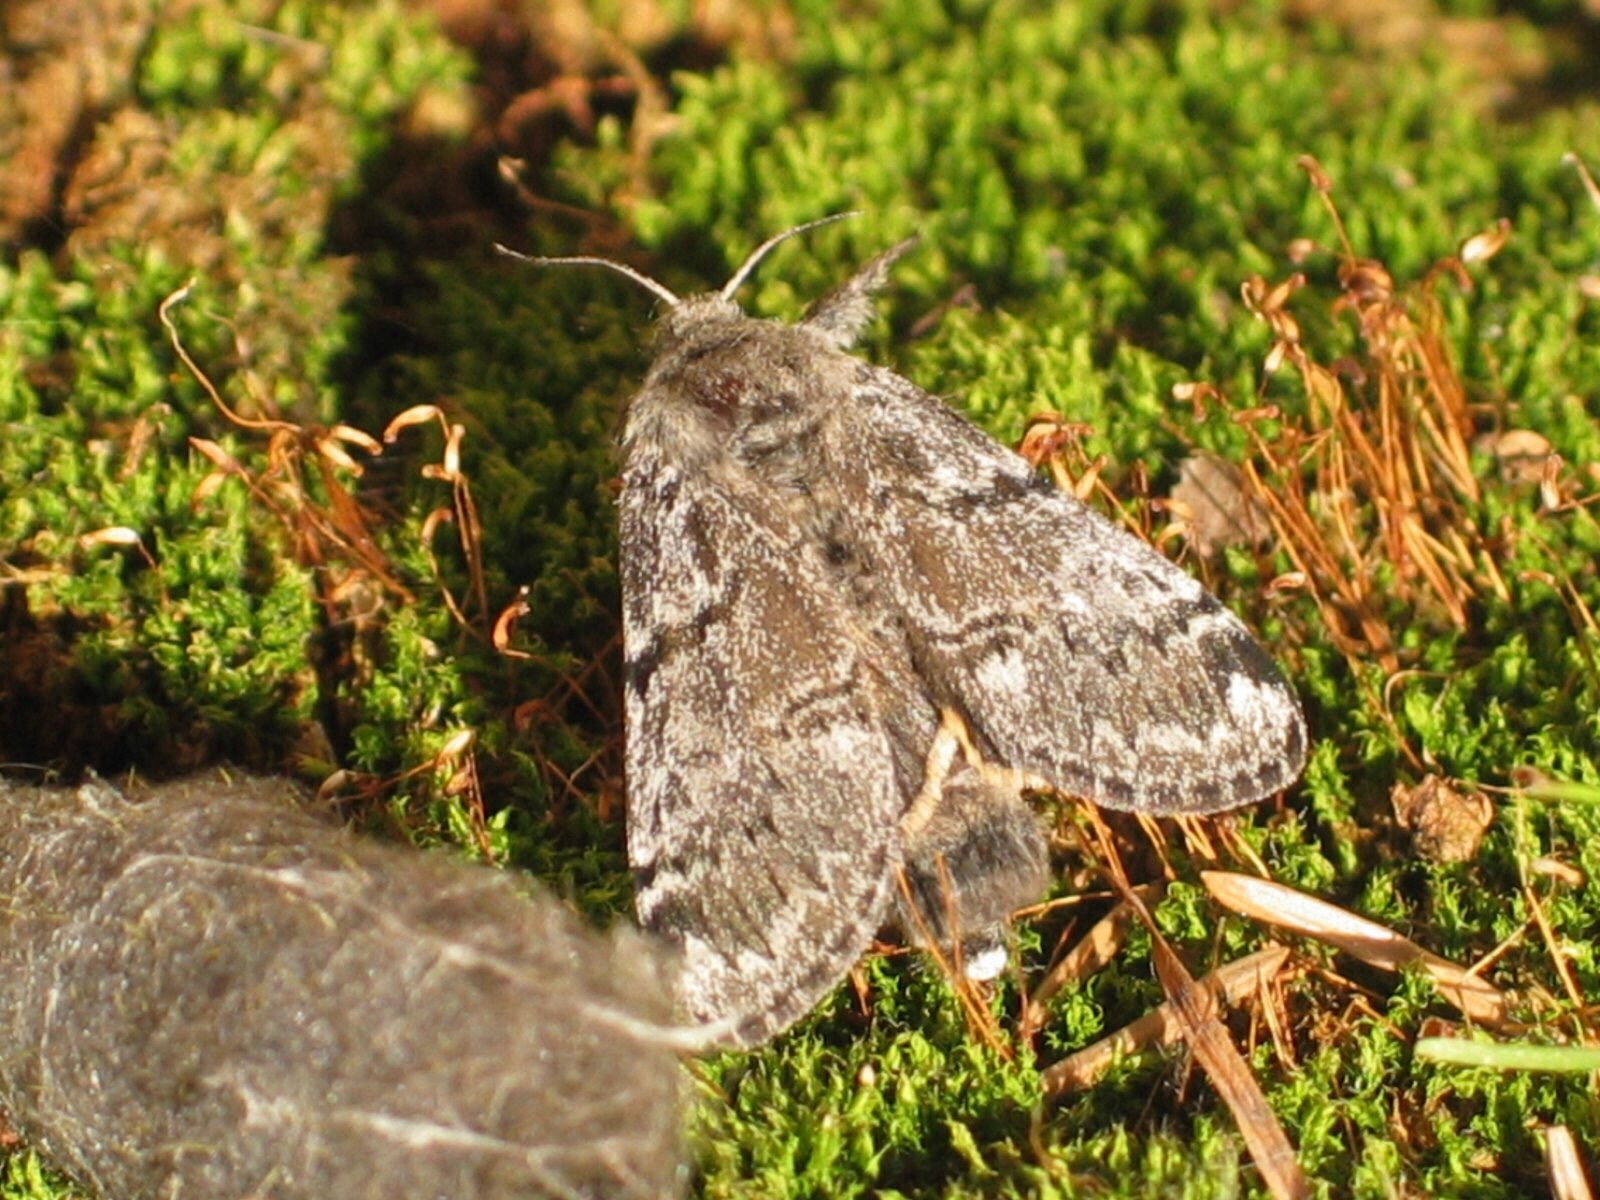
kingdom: Animalia
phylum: Arthropoda
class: Insecta
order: Lepidoptera
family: Erebidae
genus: Gynaephora
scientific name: Gynaephora rossii
